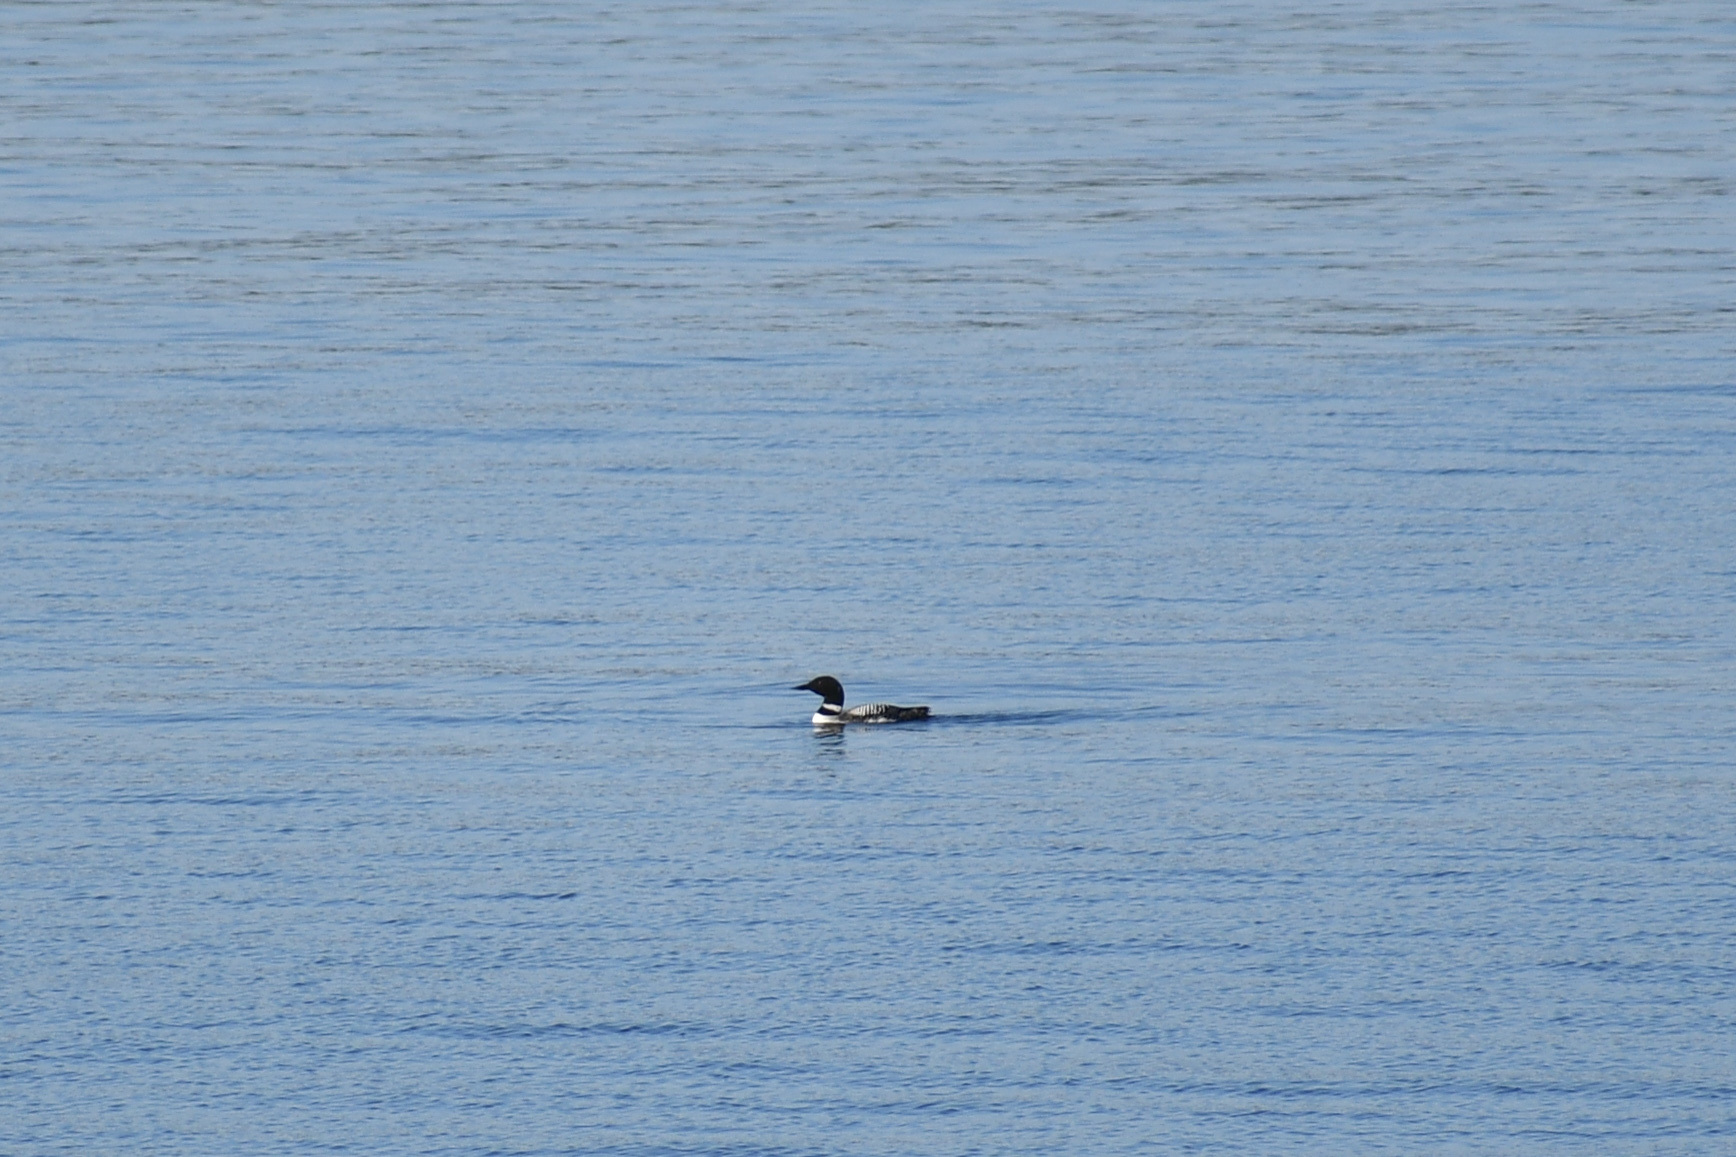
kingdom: Animalia
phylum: Chordata
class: Aves
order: Gaviiformes
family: Gaviidae
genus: Gavia
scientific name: Gavia immer
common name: Common loon
